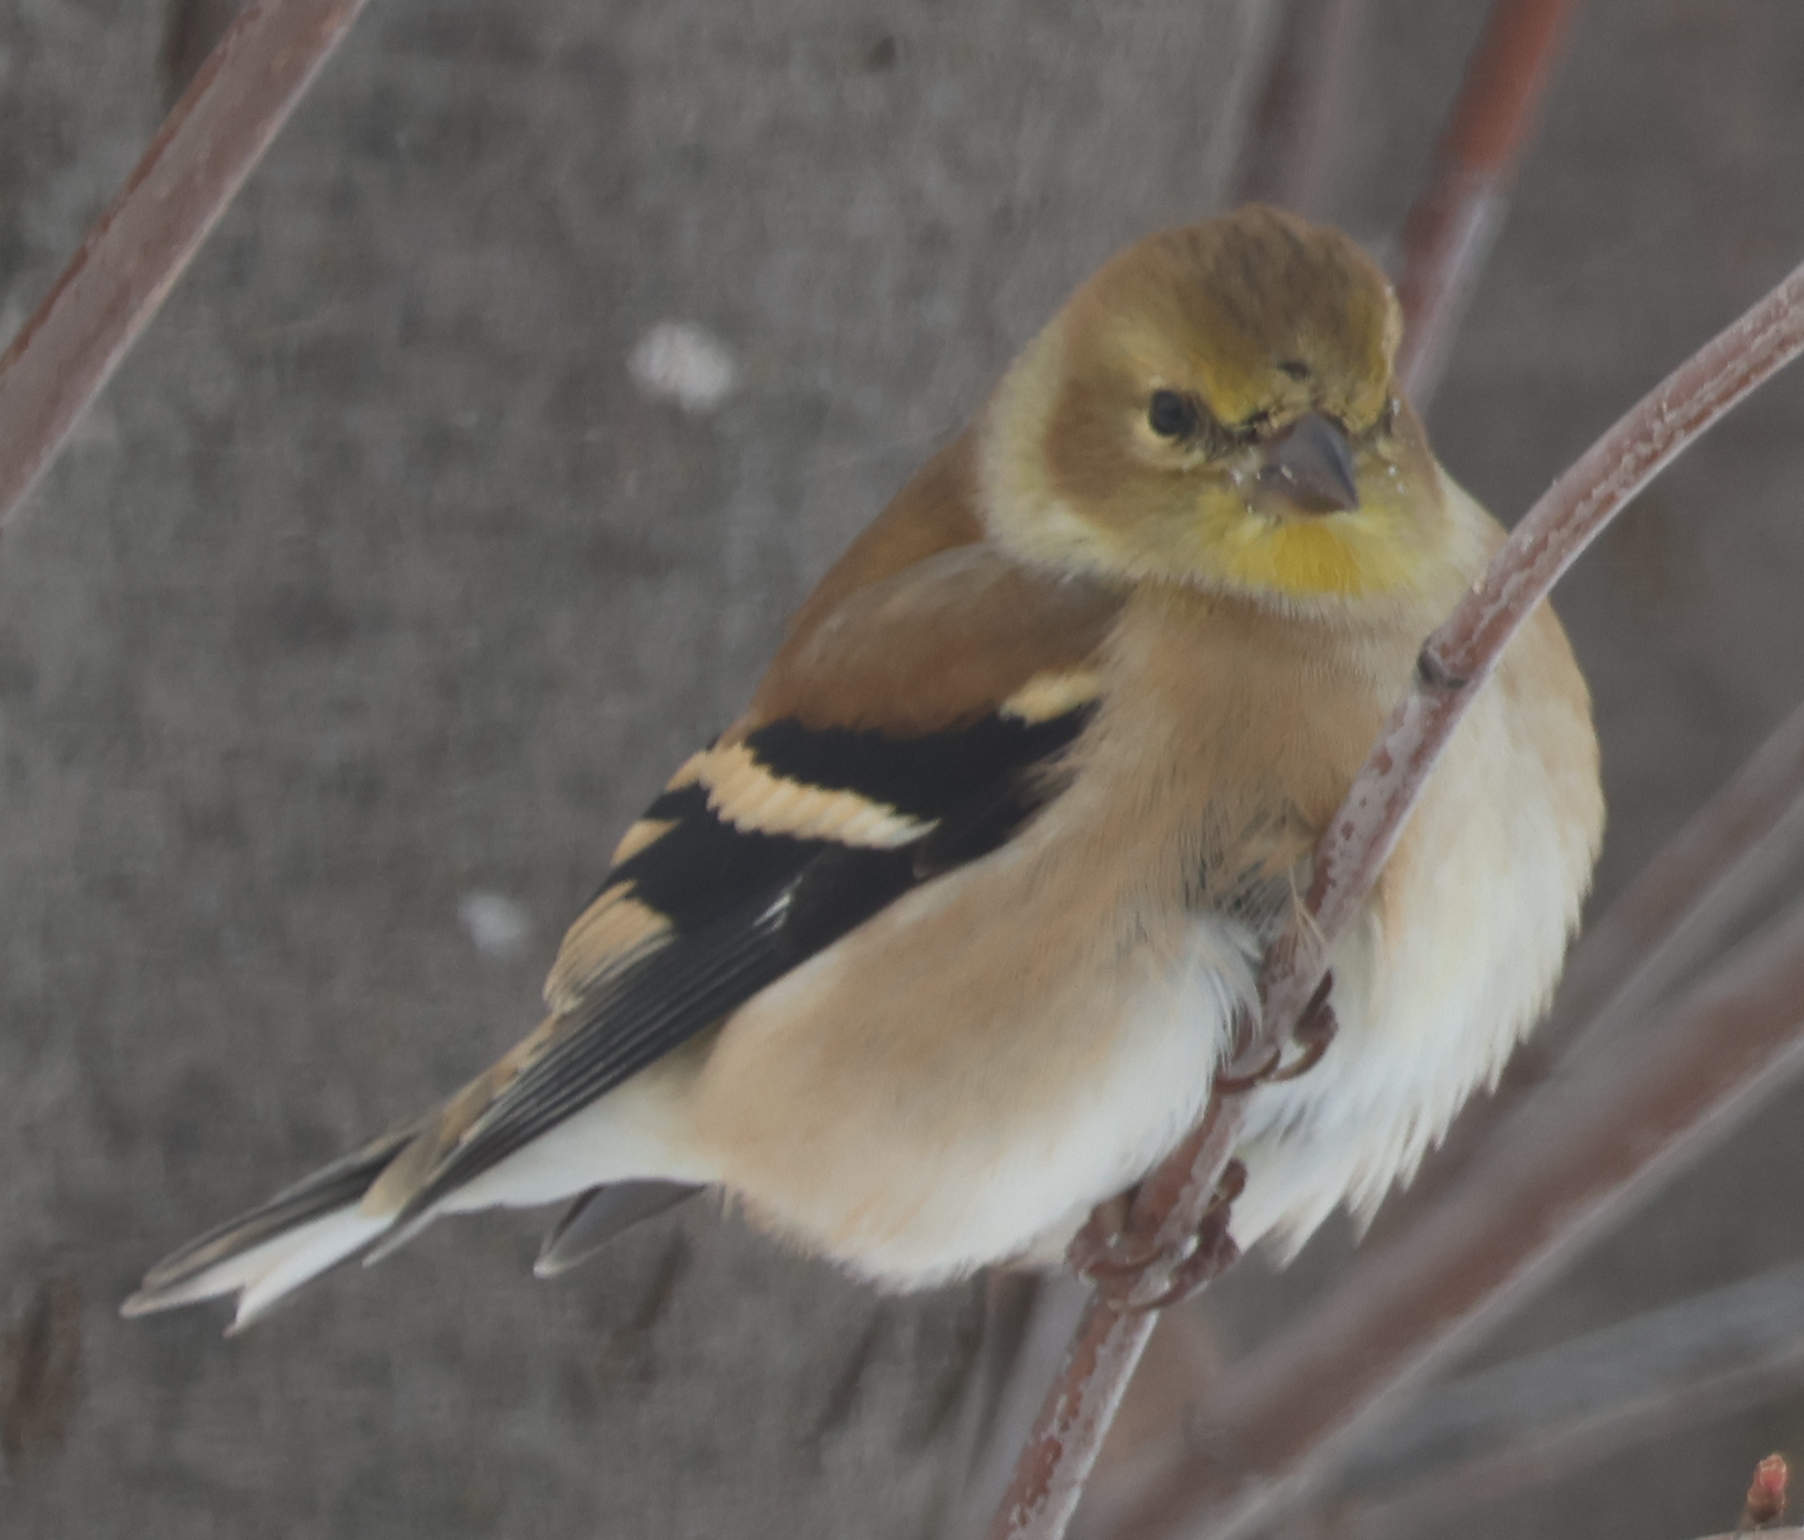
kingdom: Animalia
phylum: Chordata
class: Aves
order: Passeriformes
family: Fringillidae
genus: Spinus
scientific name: Spinus tristis
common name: American goldfinch
